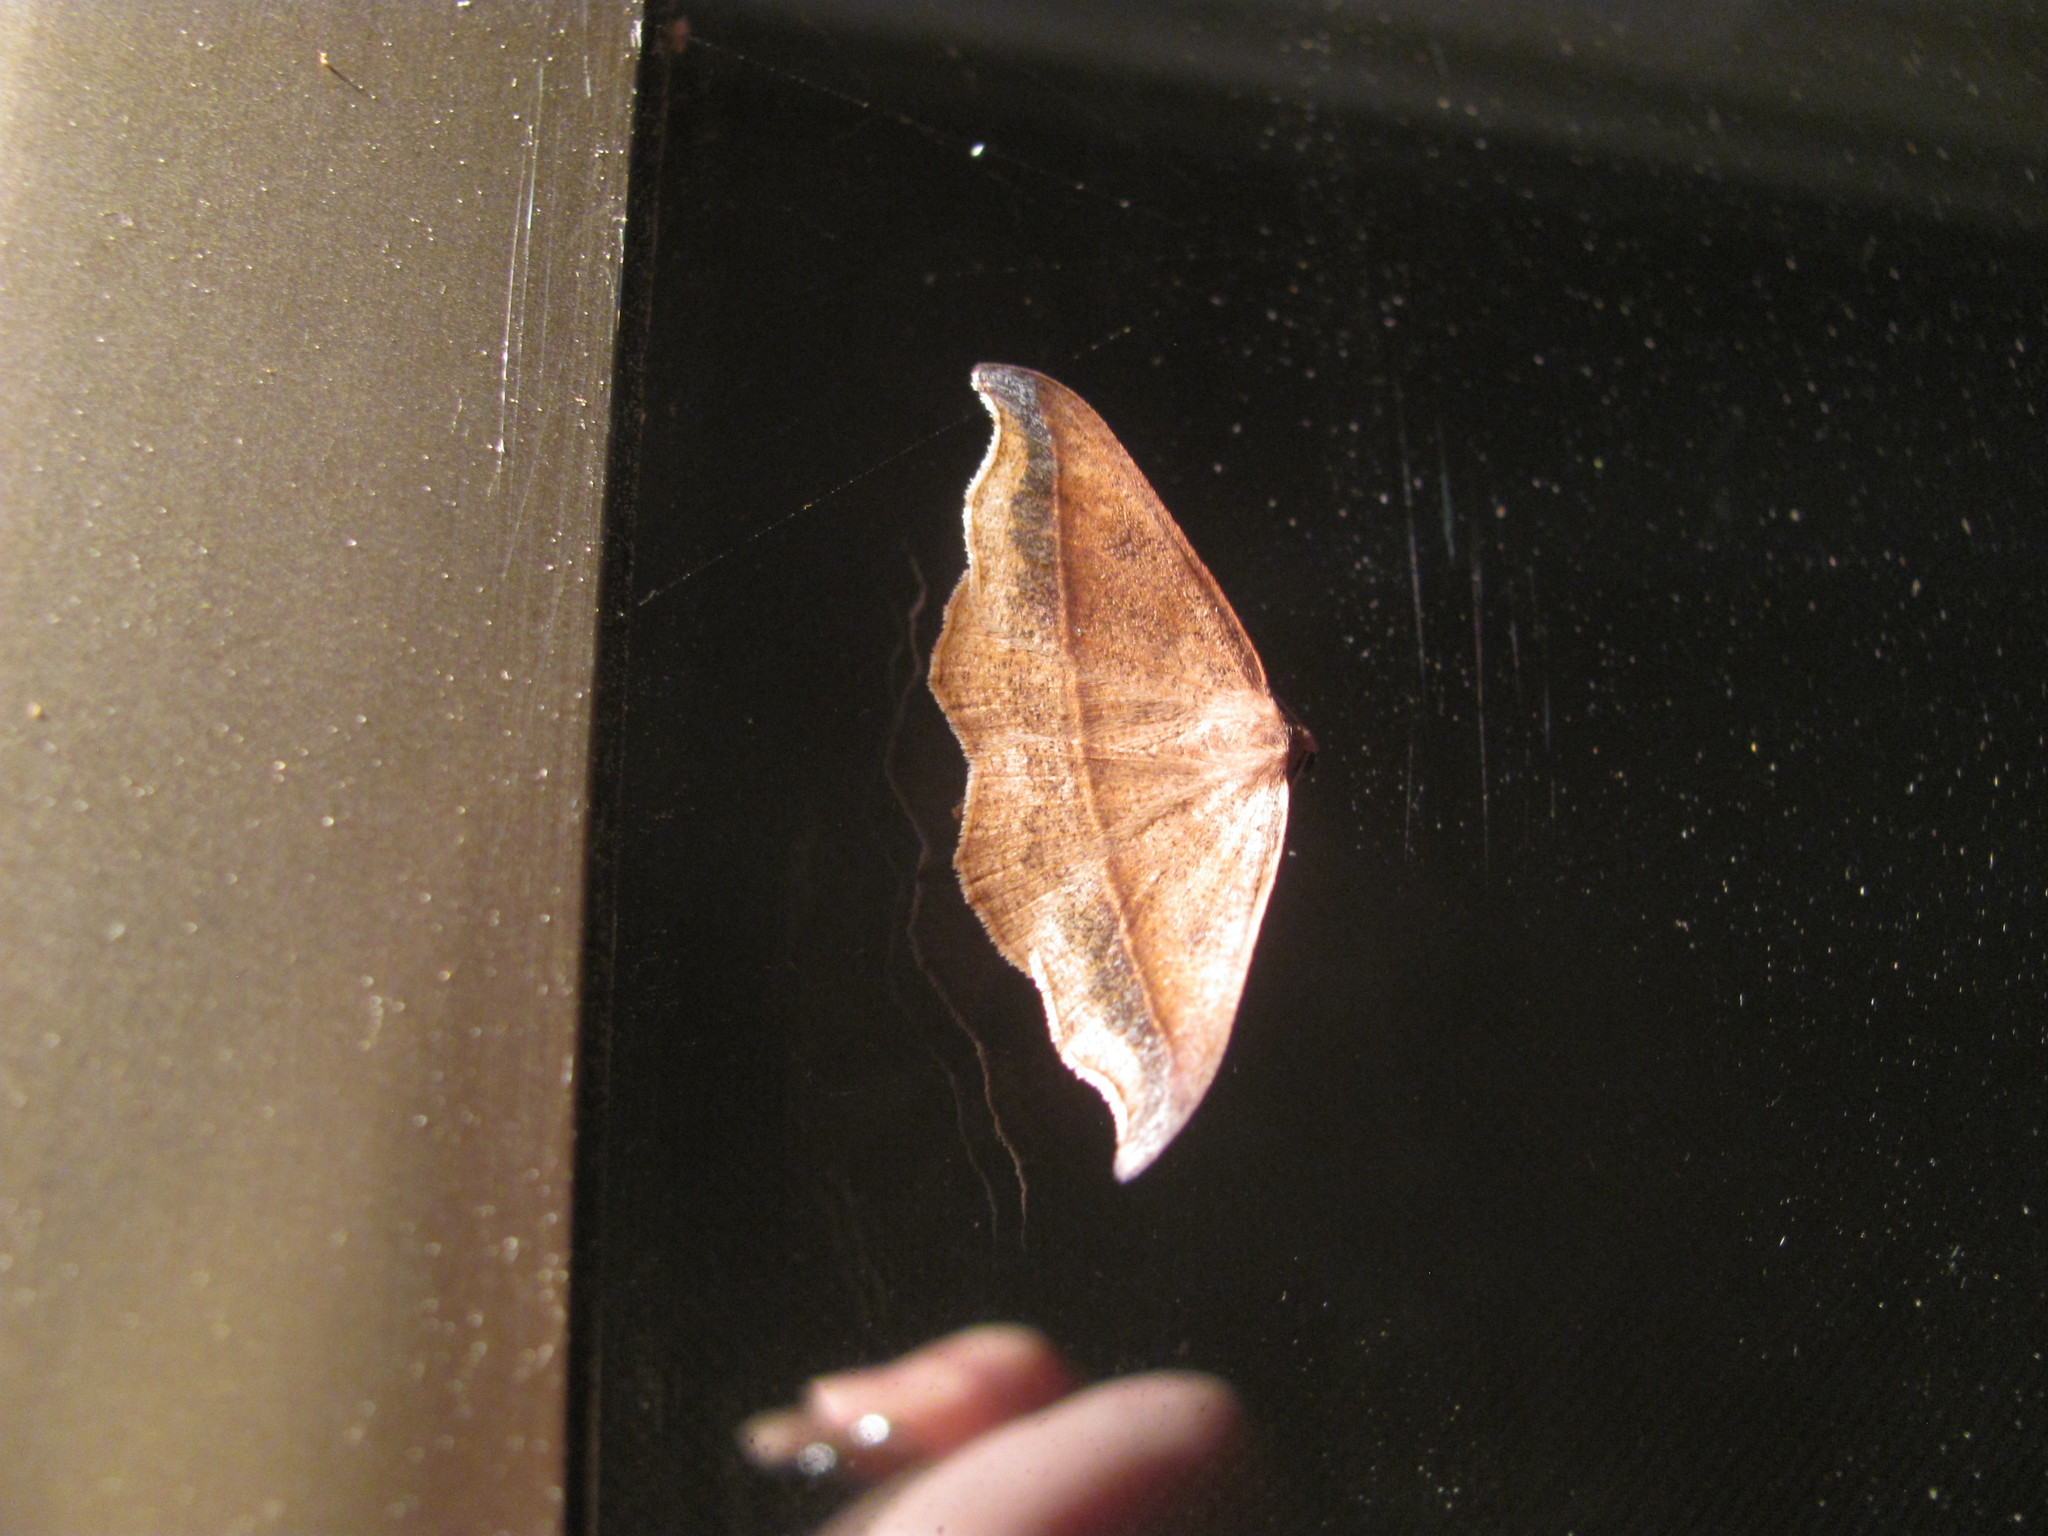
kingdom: Animalia
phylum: Arthropoda
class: Insecta
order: Lepidoptera
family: Geometridae
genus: Sarisa
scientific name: Sarisa muriferata
